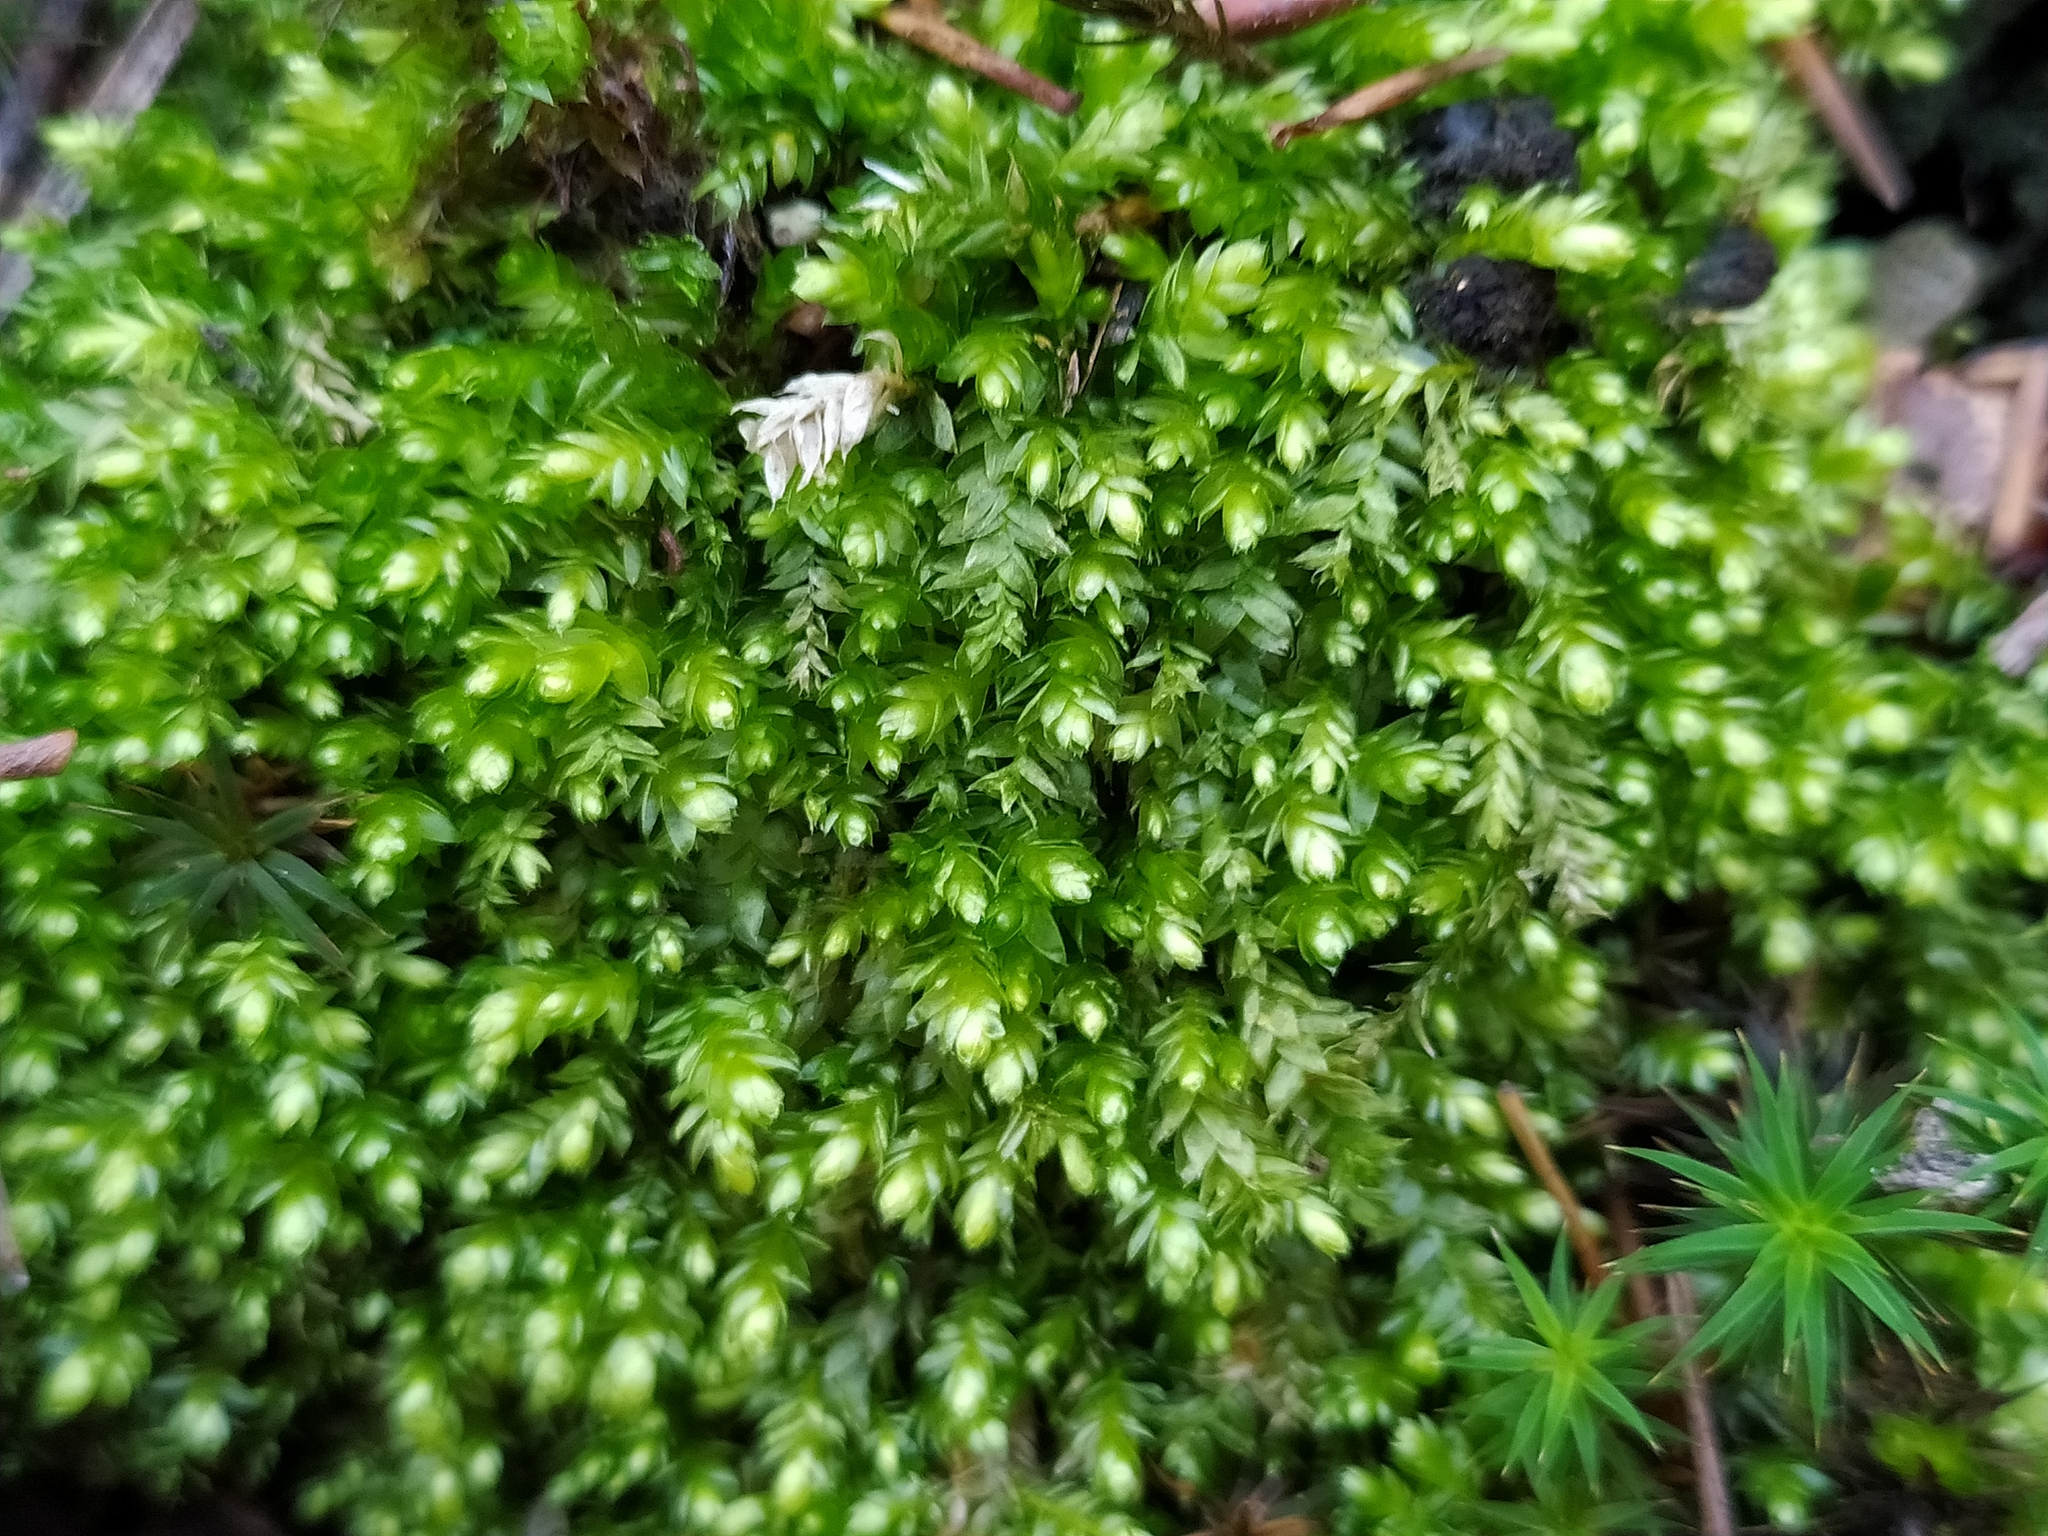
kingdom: Plantae
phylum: Bryophyta
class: Bryopsida
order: Hypnales
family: Plagiotheciaceae
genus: Plagiothecium
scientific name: Plagiothecium cavifolium
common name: Round silk moss
